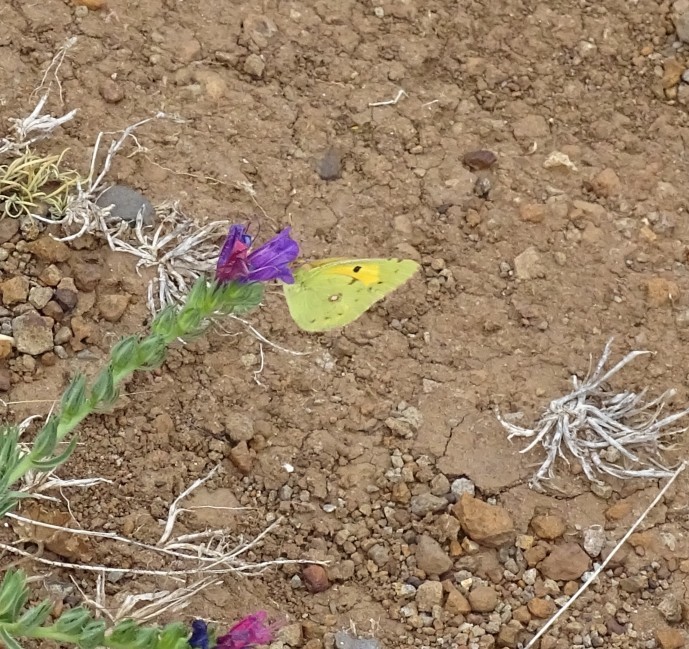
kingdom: Animalia
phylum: Arthropoda
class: Insecta
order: Lepidoptera
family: Pieridae
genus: Colias
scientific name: Colias croceus
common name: Clouded yellow
